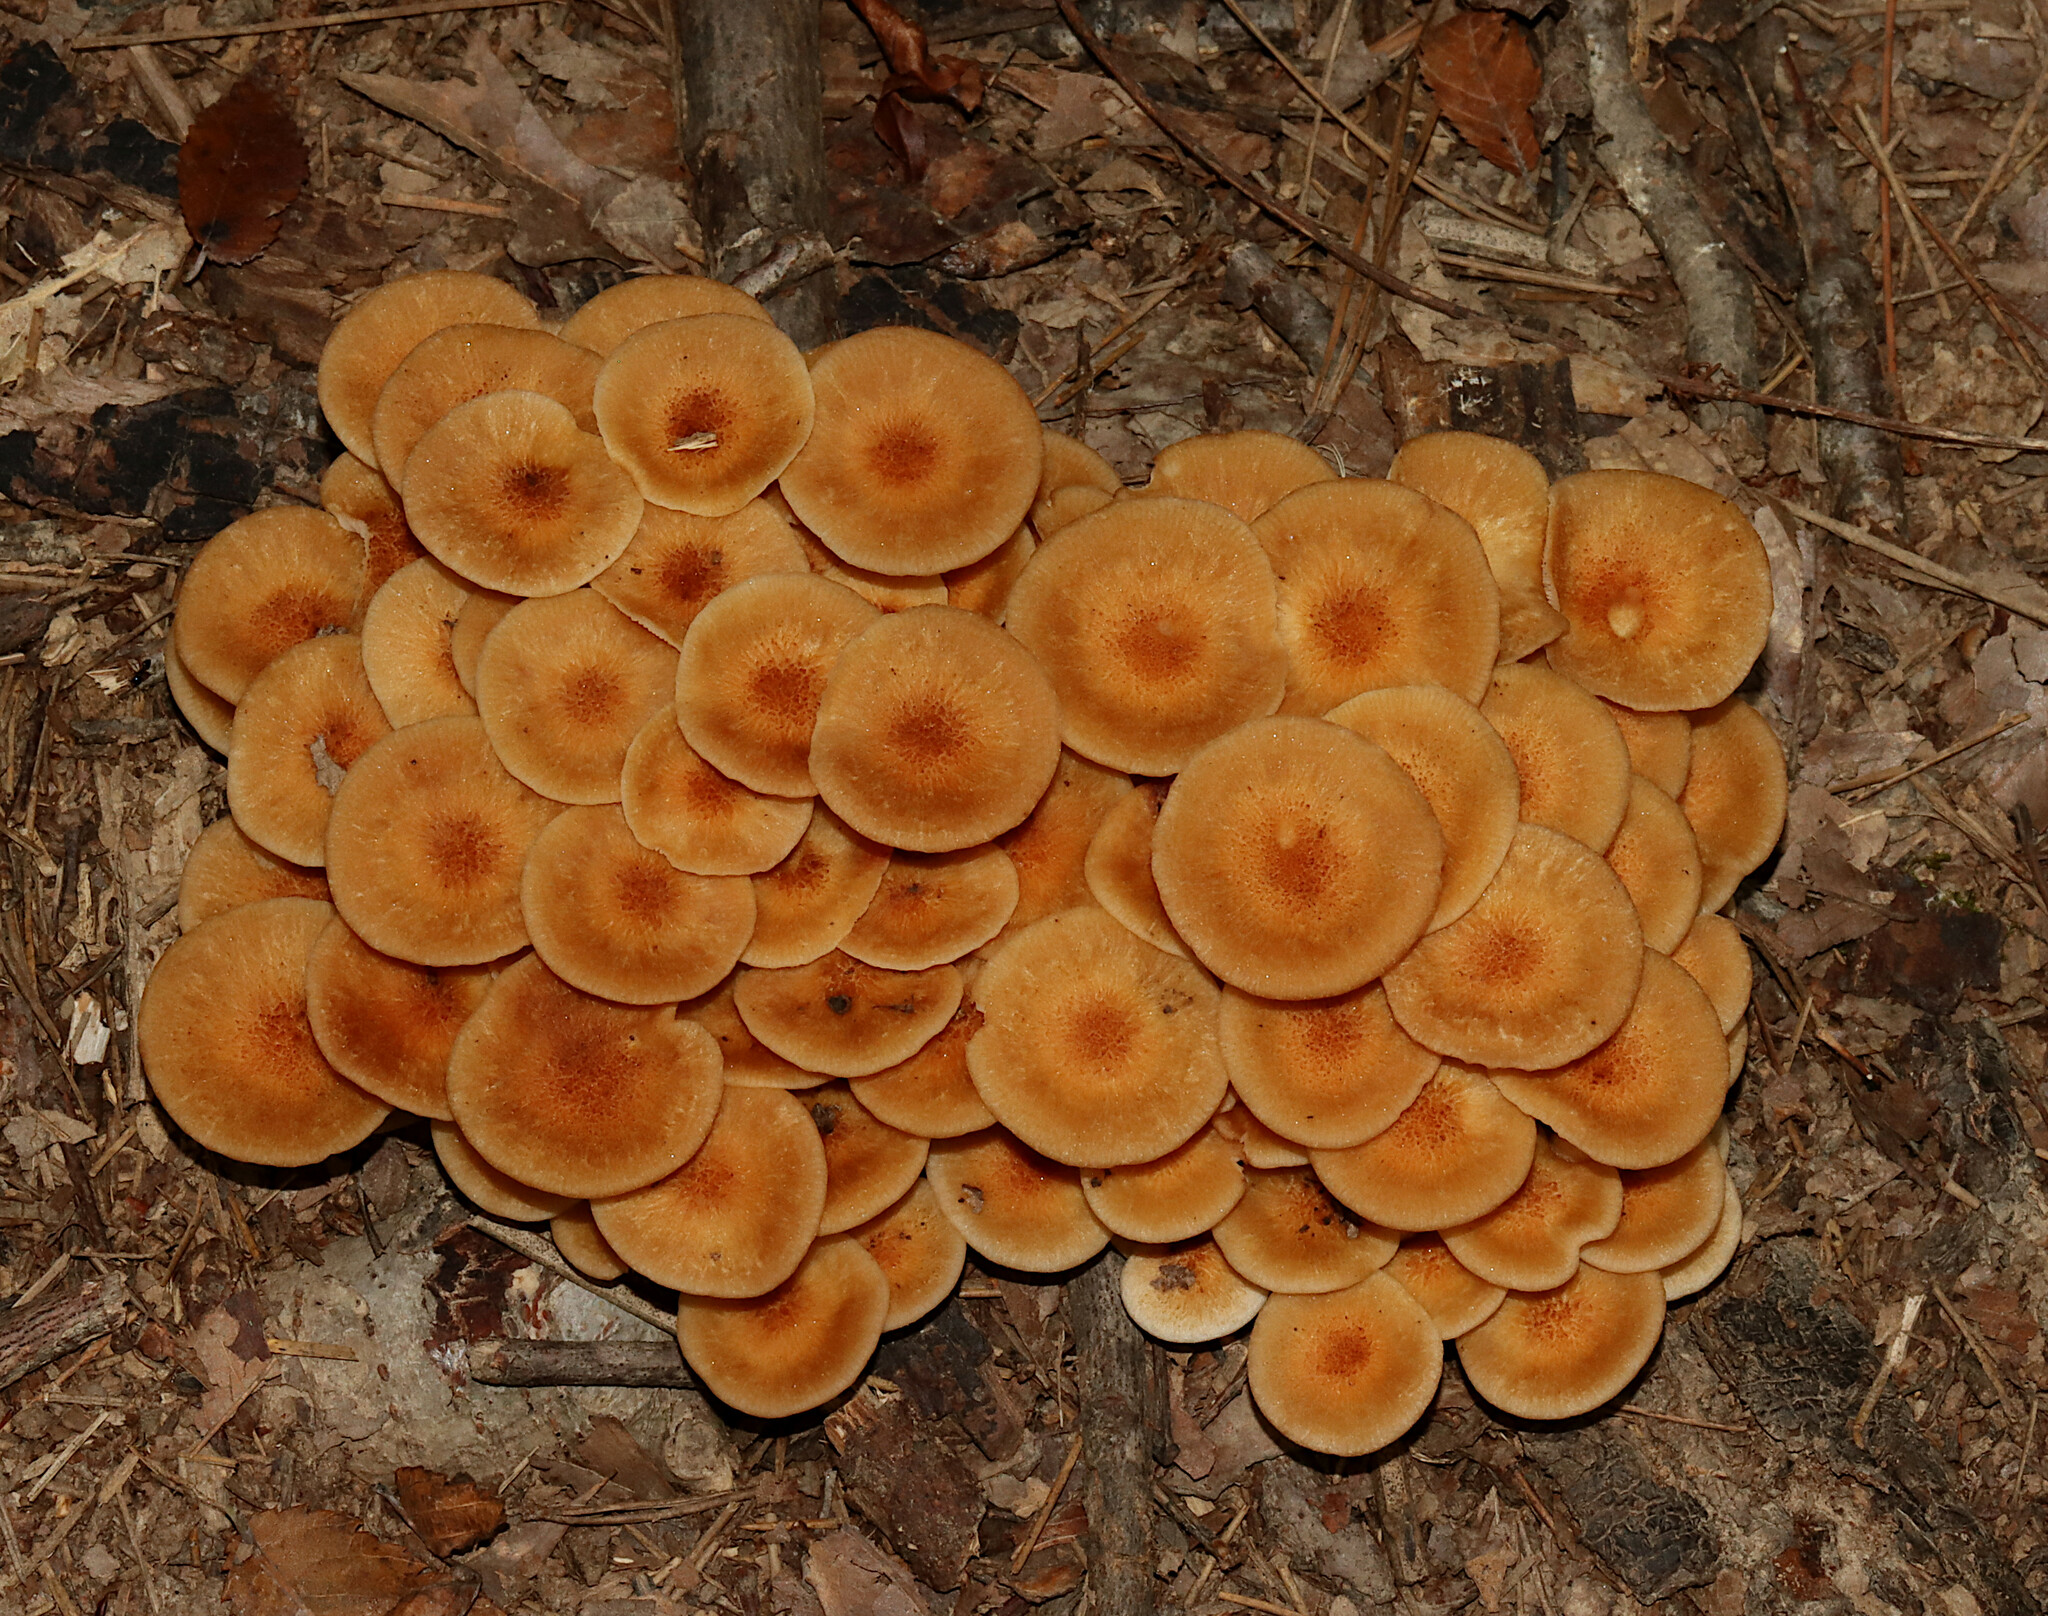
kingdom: Fungi
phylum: Basidiomycota
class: Agaricomycetes
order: Agaricales
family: Physalacriaceae
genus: Desarmillaria
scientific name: Desarmillaria caespitosa
